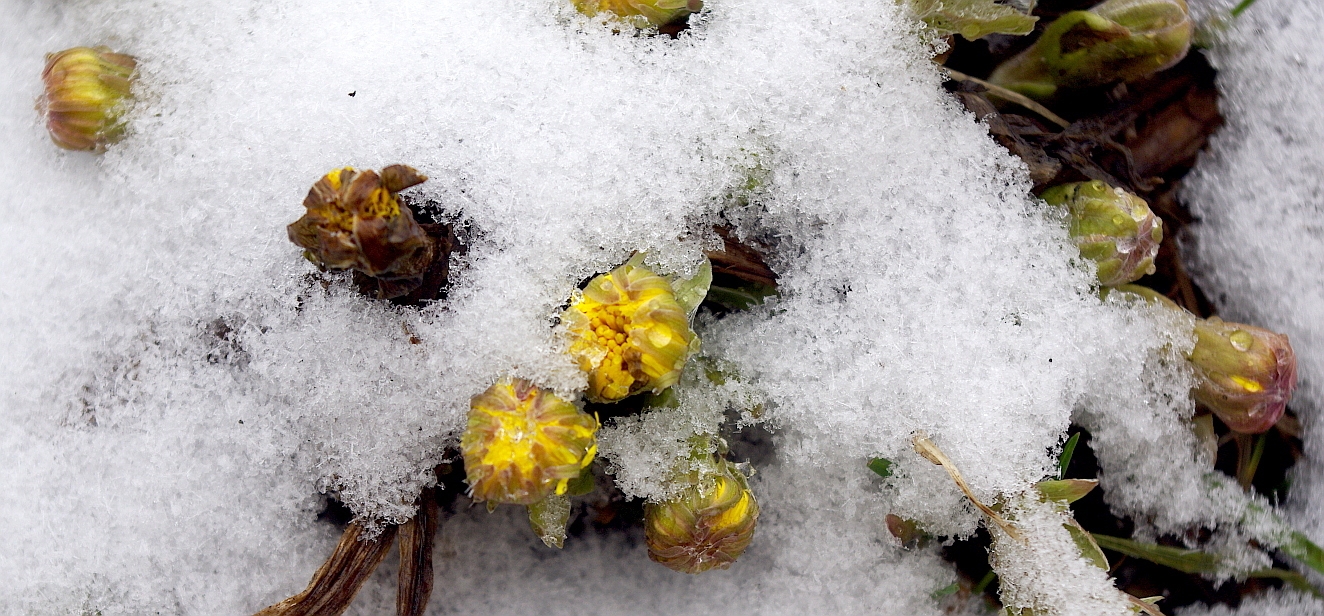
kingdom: Plantae
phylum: Tracheophyta
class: Magnoliopsida
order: Asterales
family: Asteraceae
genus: Tussilago
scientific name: Tussilago farfara
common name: Coltsfoot
